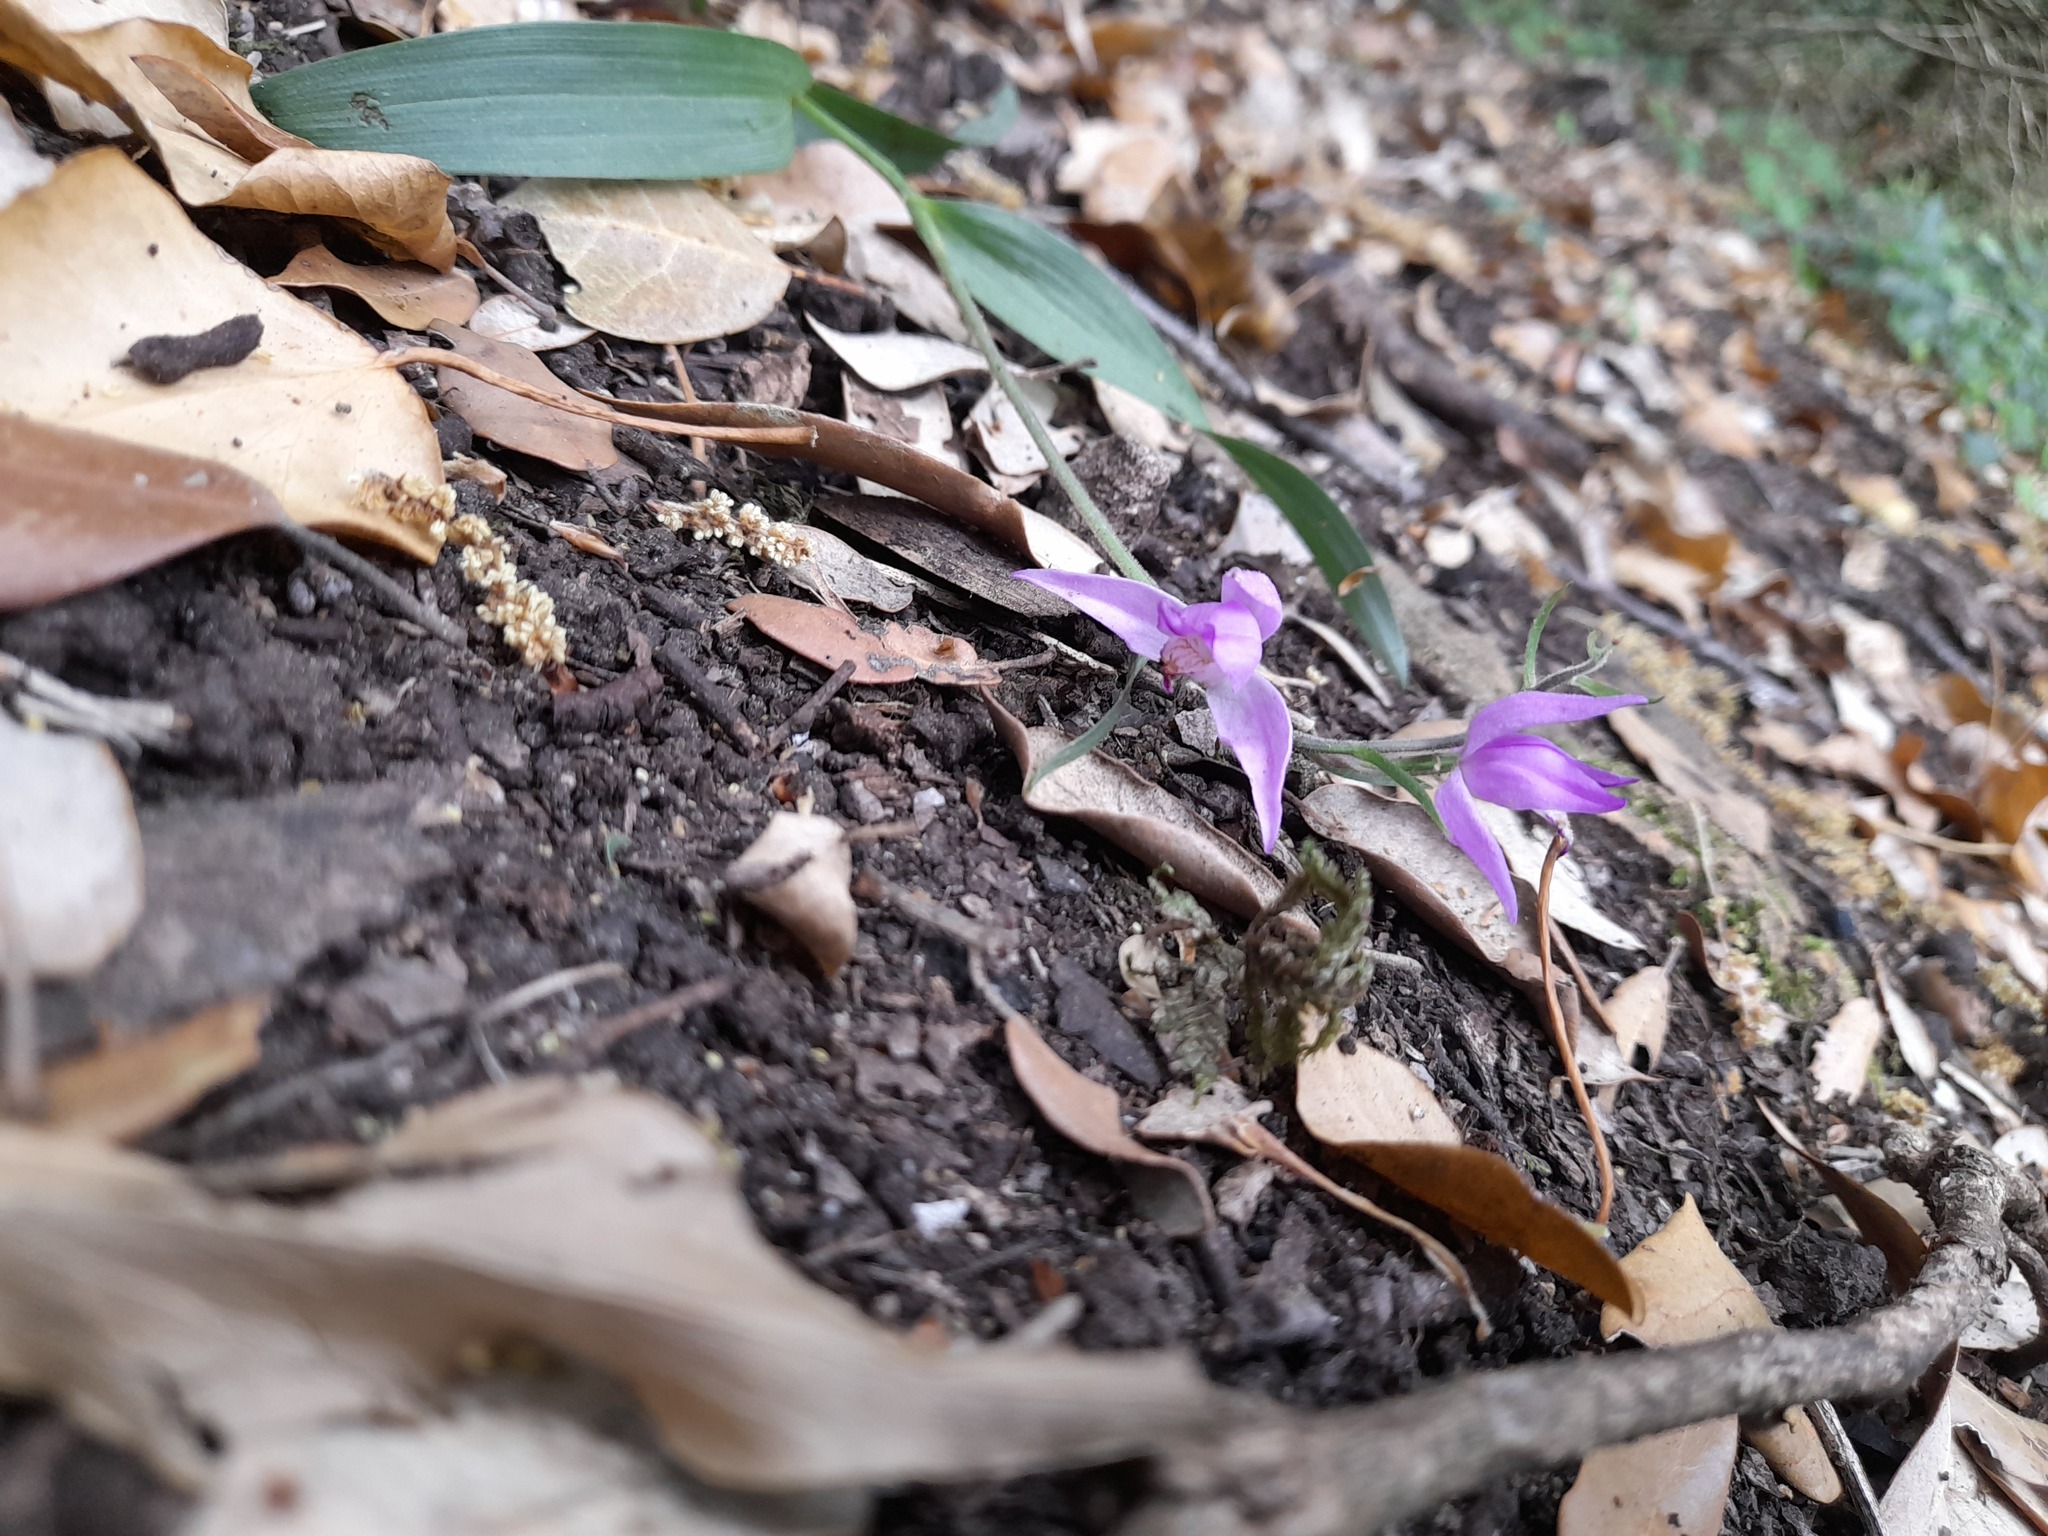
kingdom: Plantae
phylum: Tracheophyta
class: Liliopsida
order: Asparagales
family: Orchidaceae
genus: Cephalanthera
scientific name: Cephalanthera rubra
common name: Red helleborine
